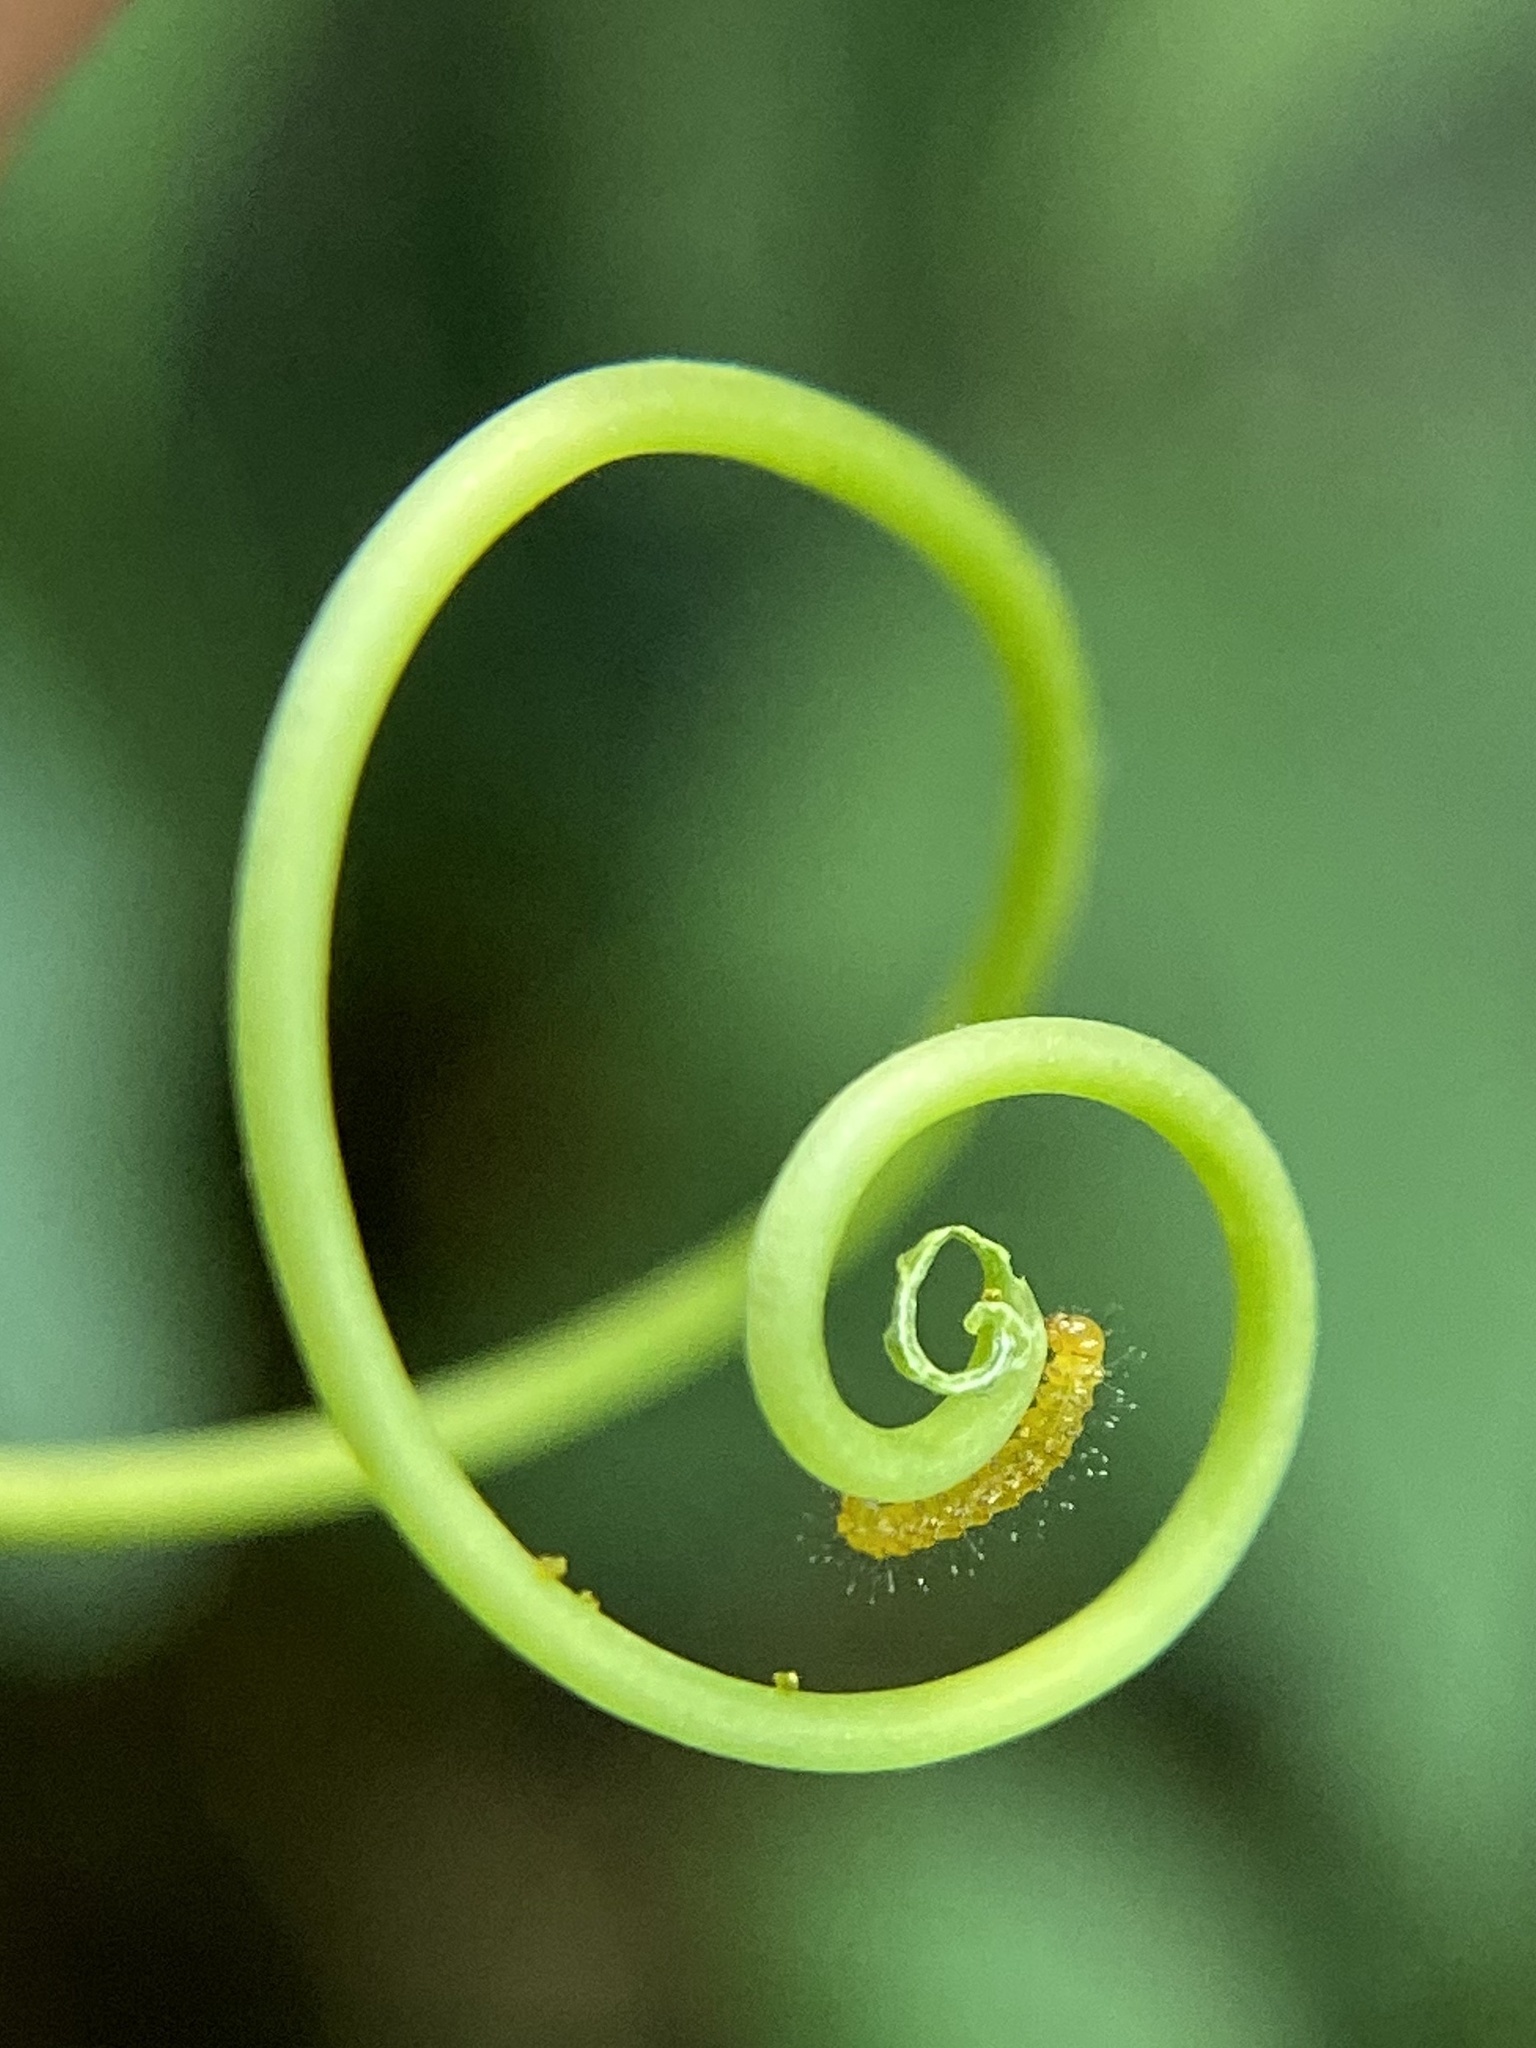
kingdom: Animalia
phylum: Arthropoda
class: Insecta
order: Lepidoptera
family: Nymphalidae
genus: Heliconius
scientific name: Heliconius charithonia
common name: Zebra long wing
